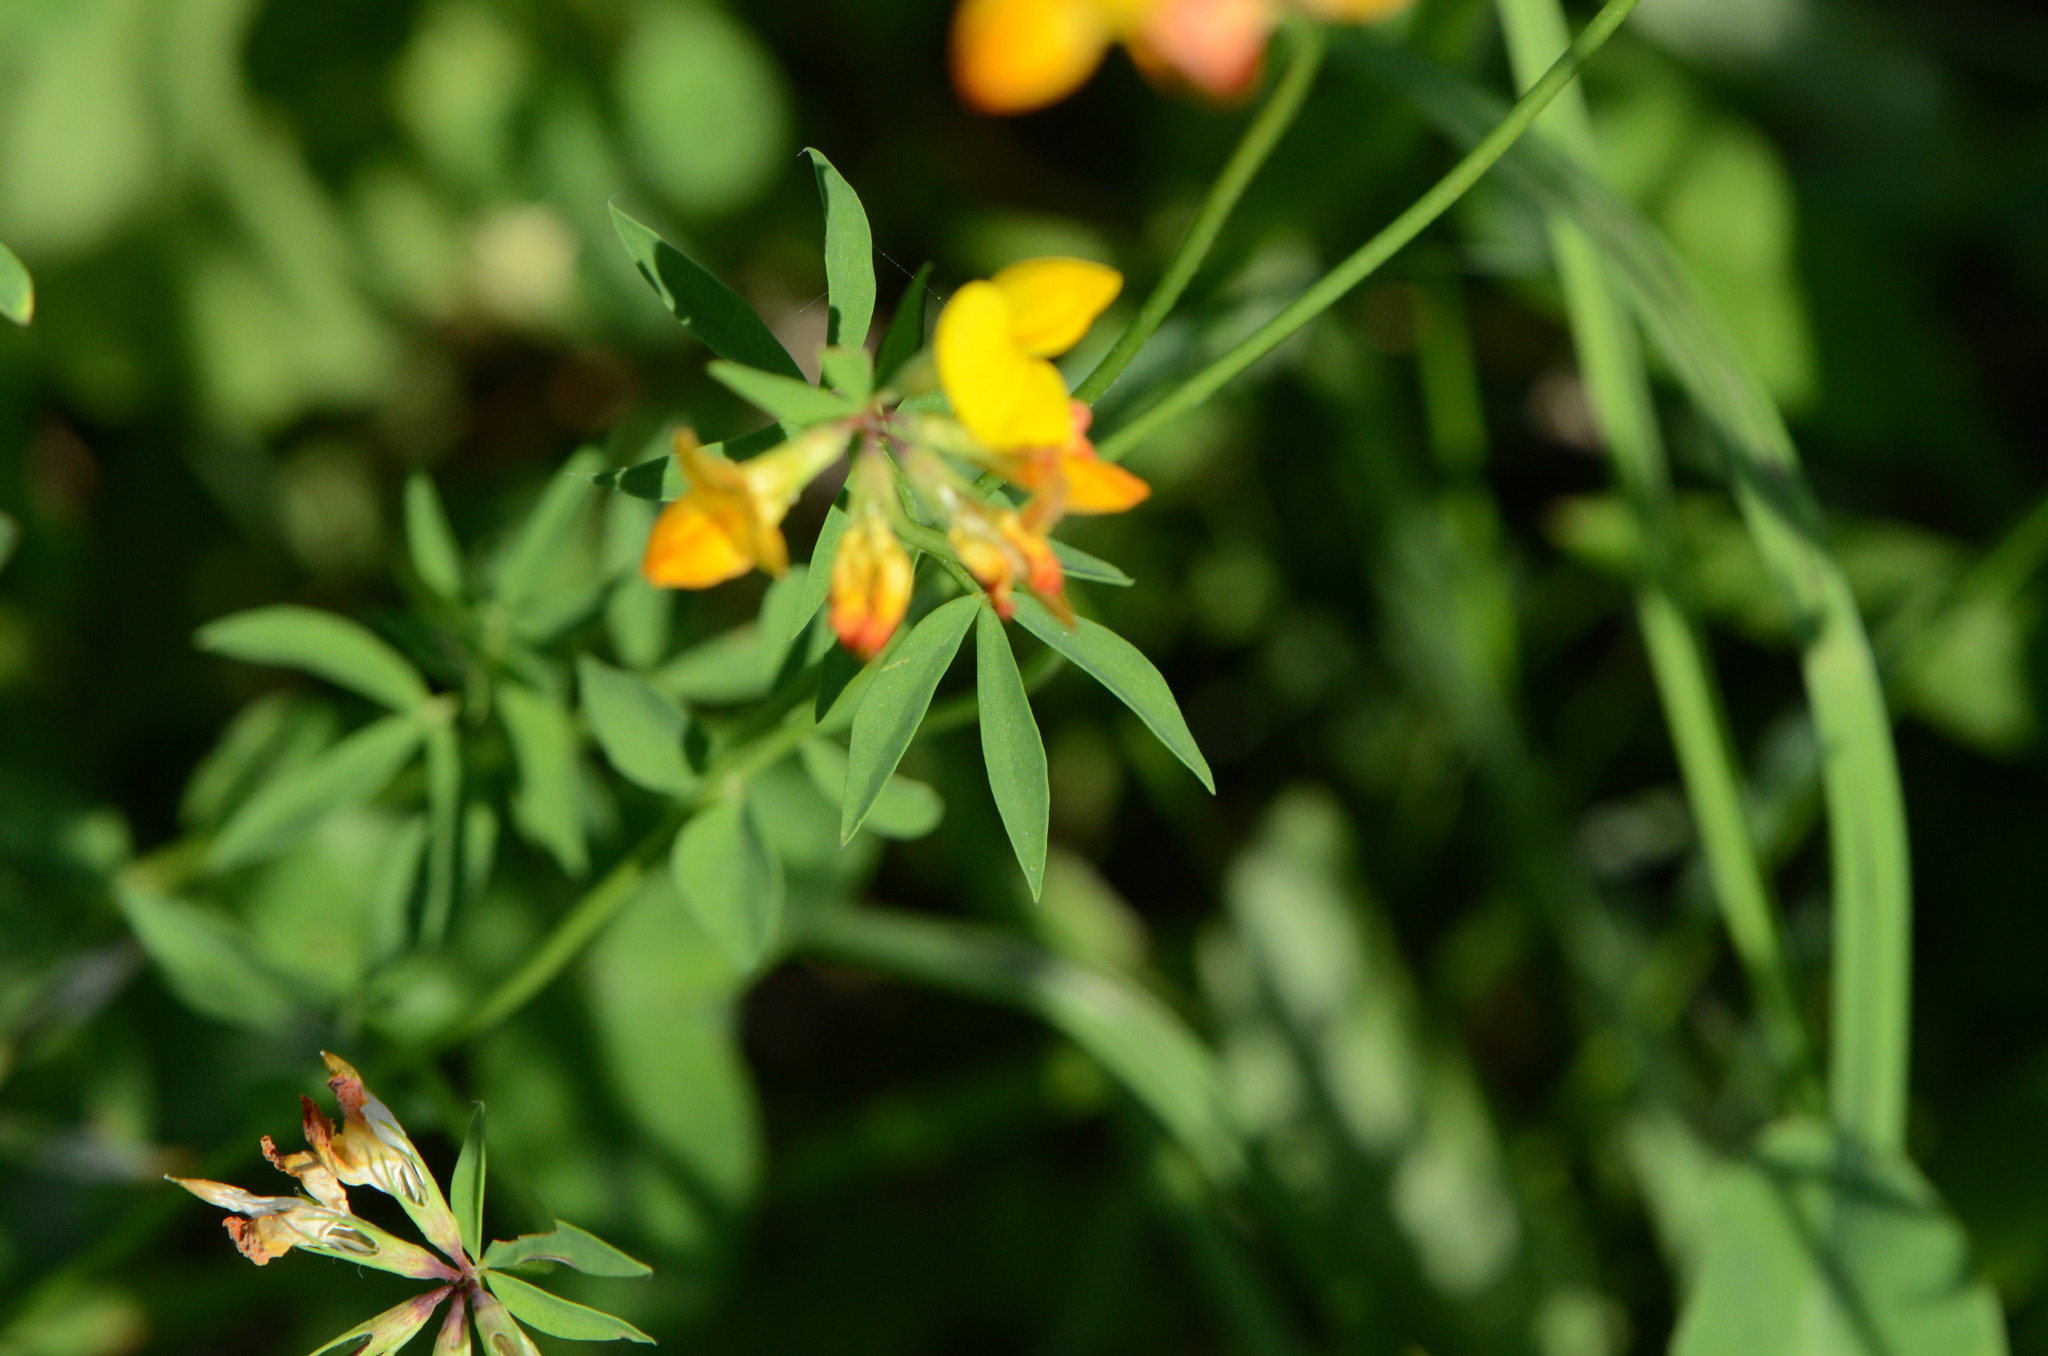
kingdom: Plantae
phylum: Tracheophyta
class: Magnoliopsida
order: Fabales
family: Fabaceae
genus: Lotus
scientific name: Lotus corniculatus
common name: Common bird's-foot-trefoil
